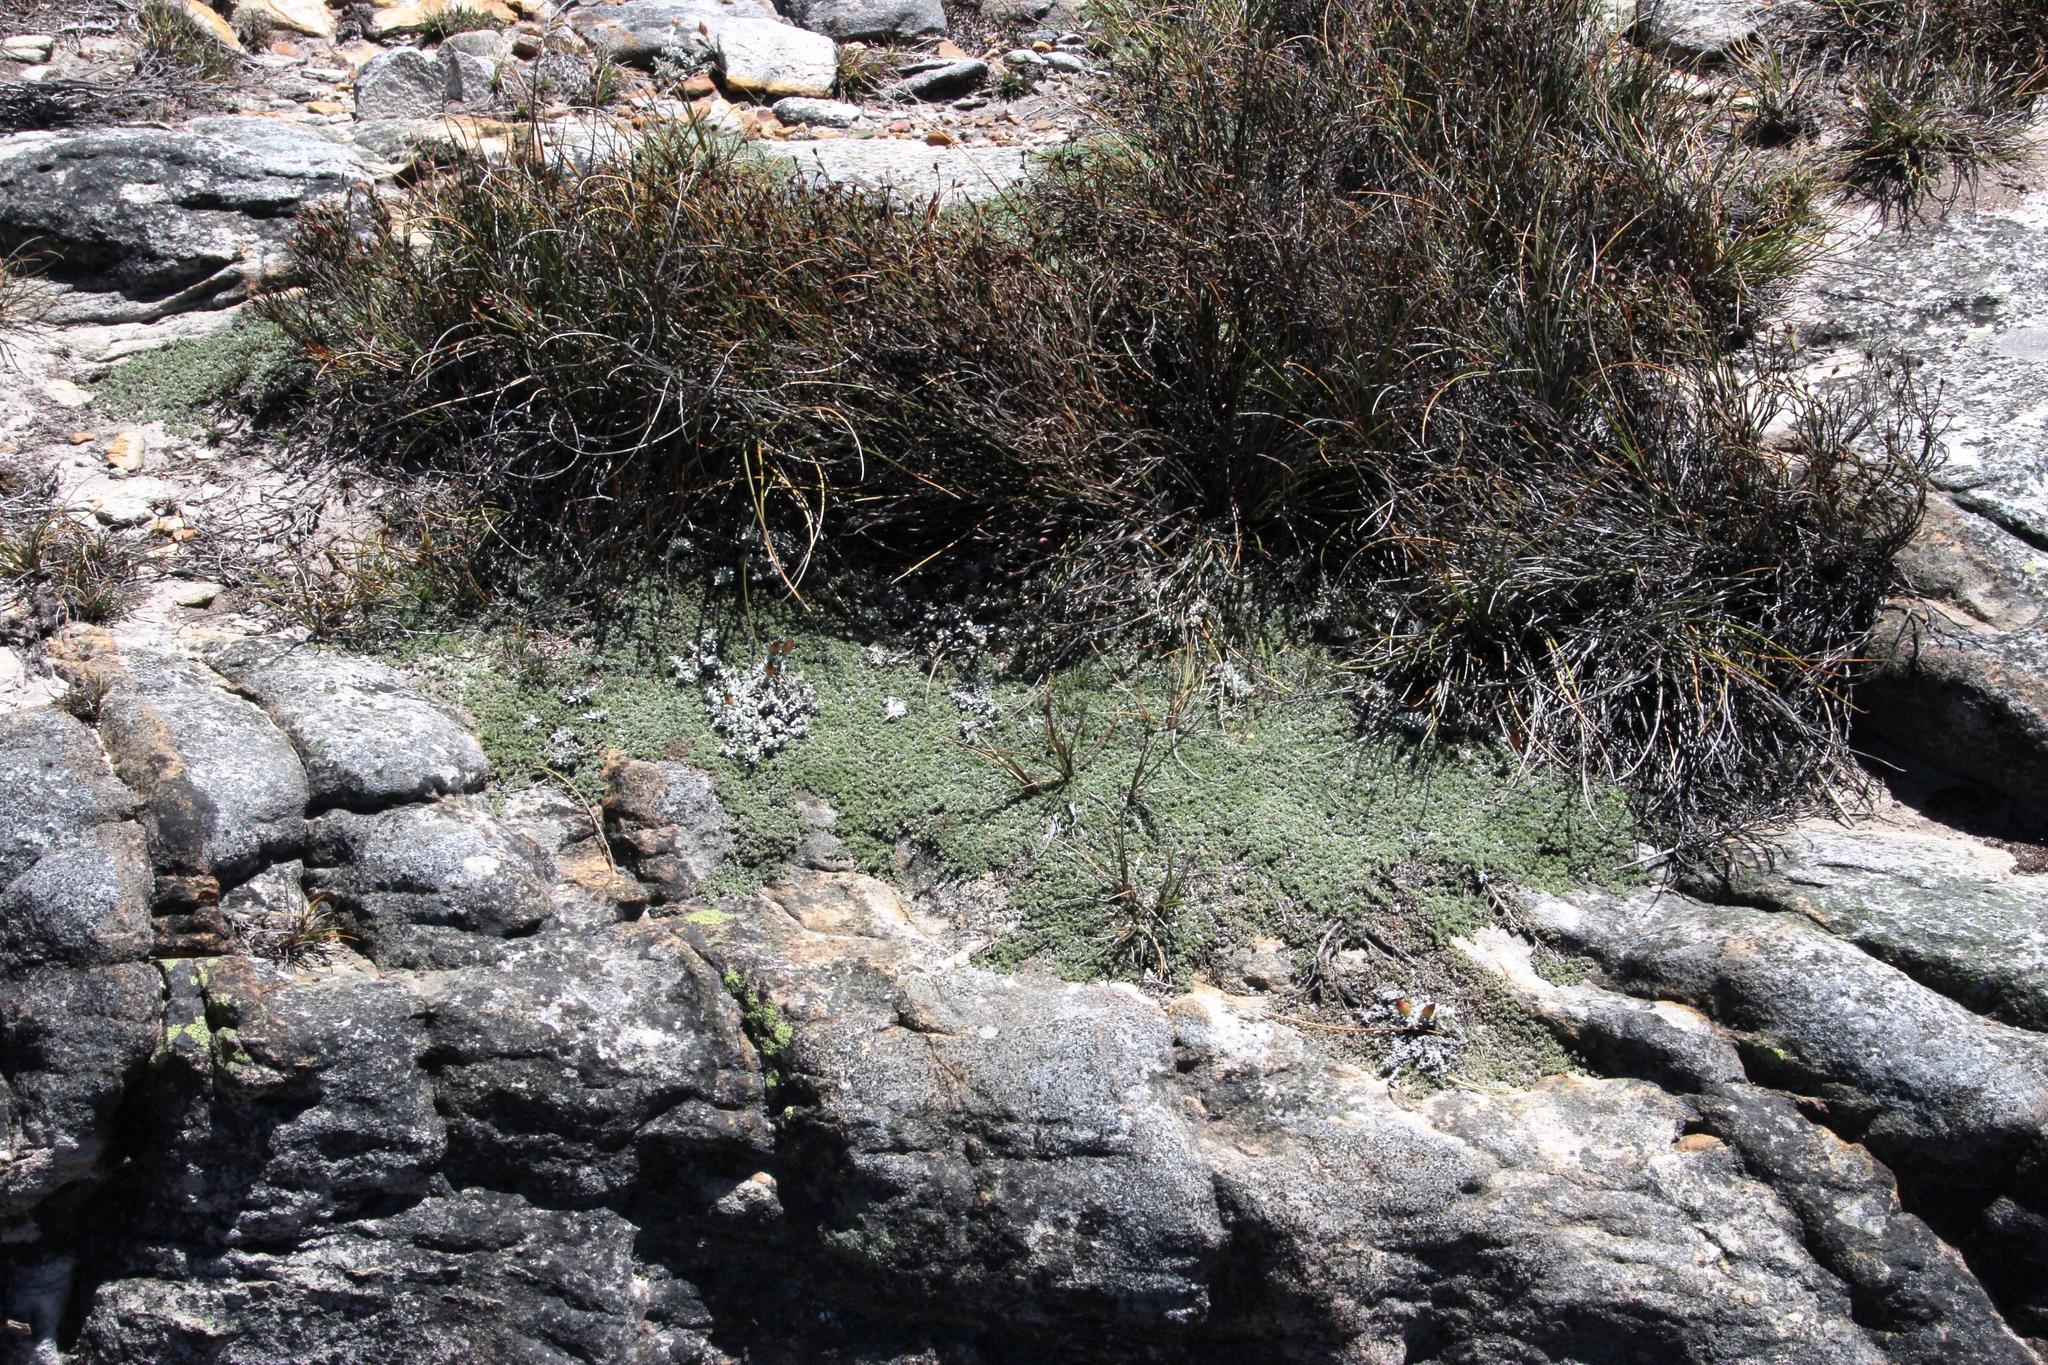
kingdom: Plantae
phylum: Tracheophyta
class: Magnoliopsida
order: Fabales
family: Fabaceae
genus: Aspalathus
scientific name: Aspalathus bodkinii
